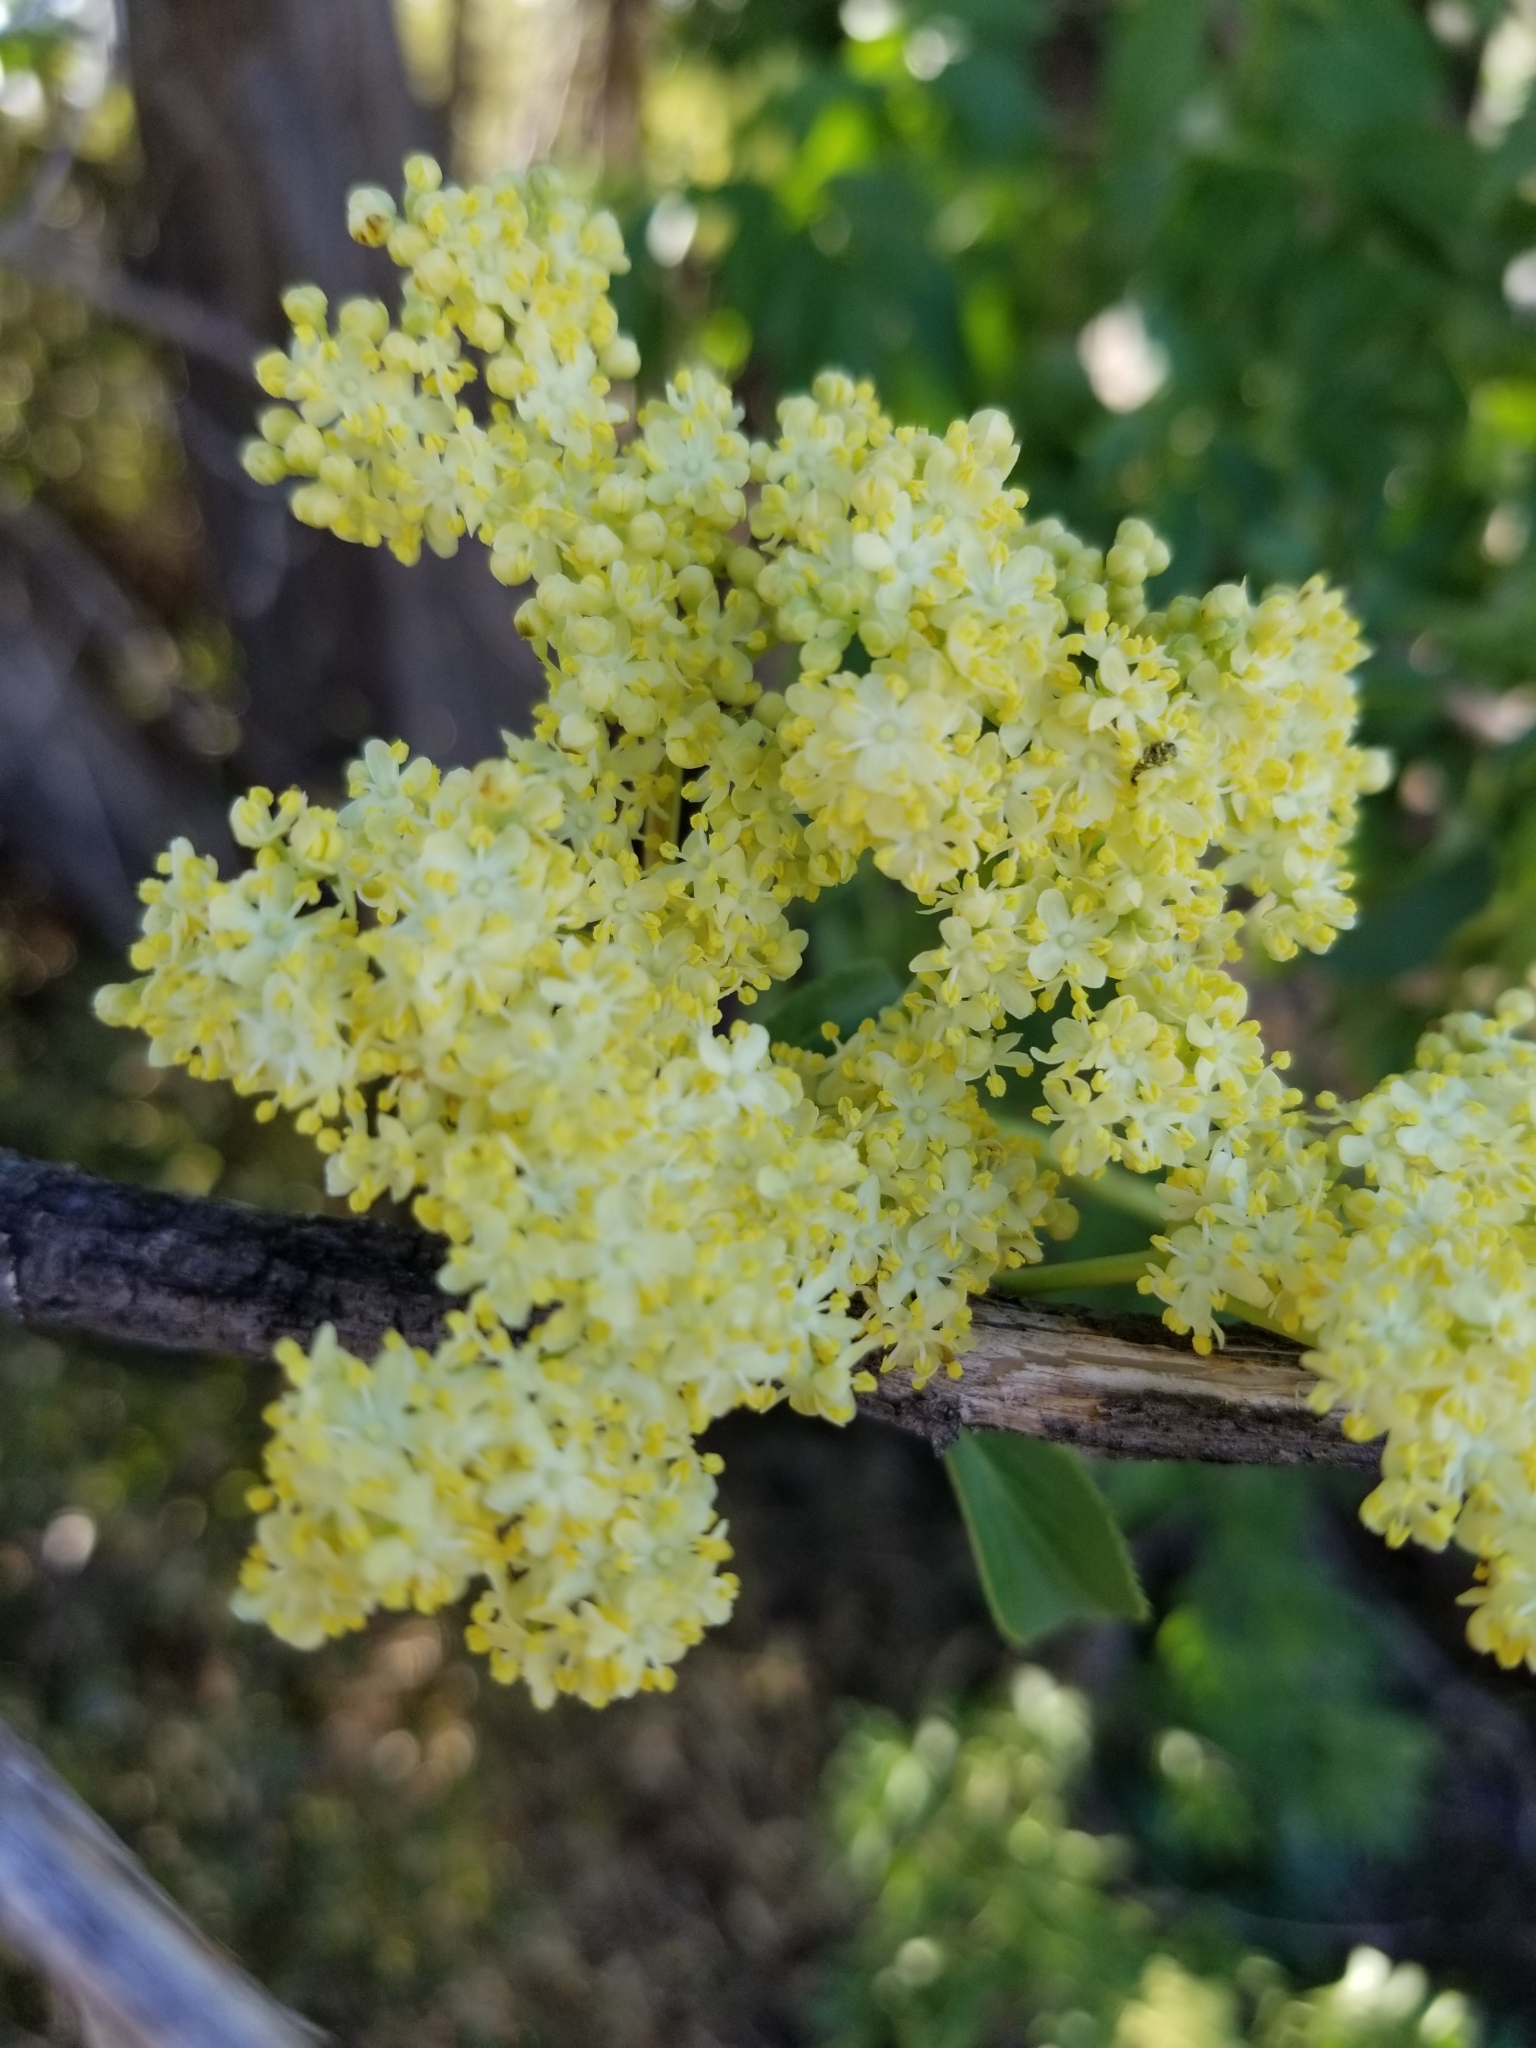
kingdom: Plantae
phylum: Tracheophyta
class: Magnoliopsida
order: Dipsacales
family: Viburnaceae
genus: Sambucus
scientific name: Sambucus cerulea
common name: Blue elder
